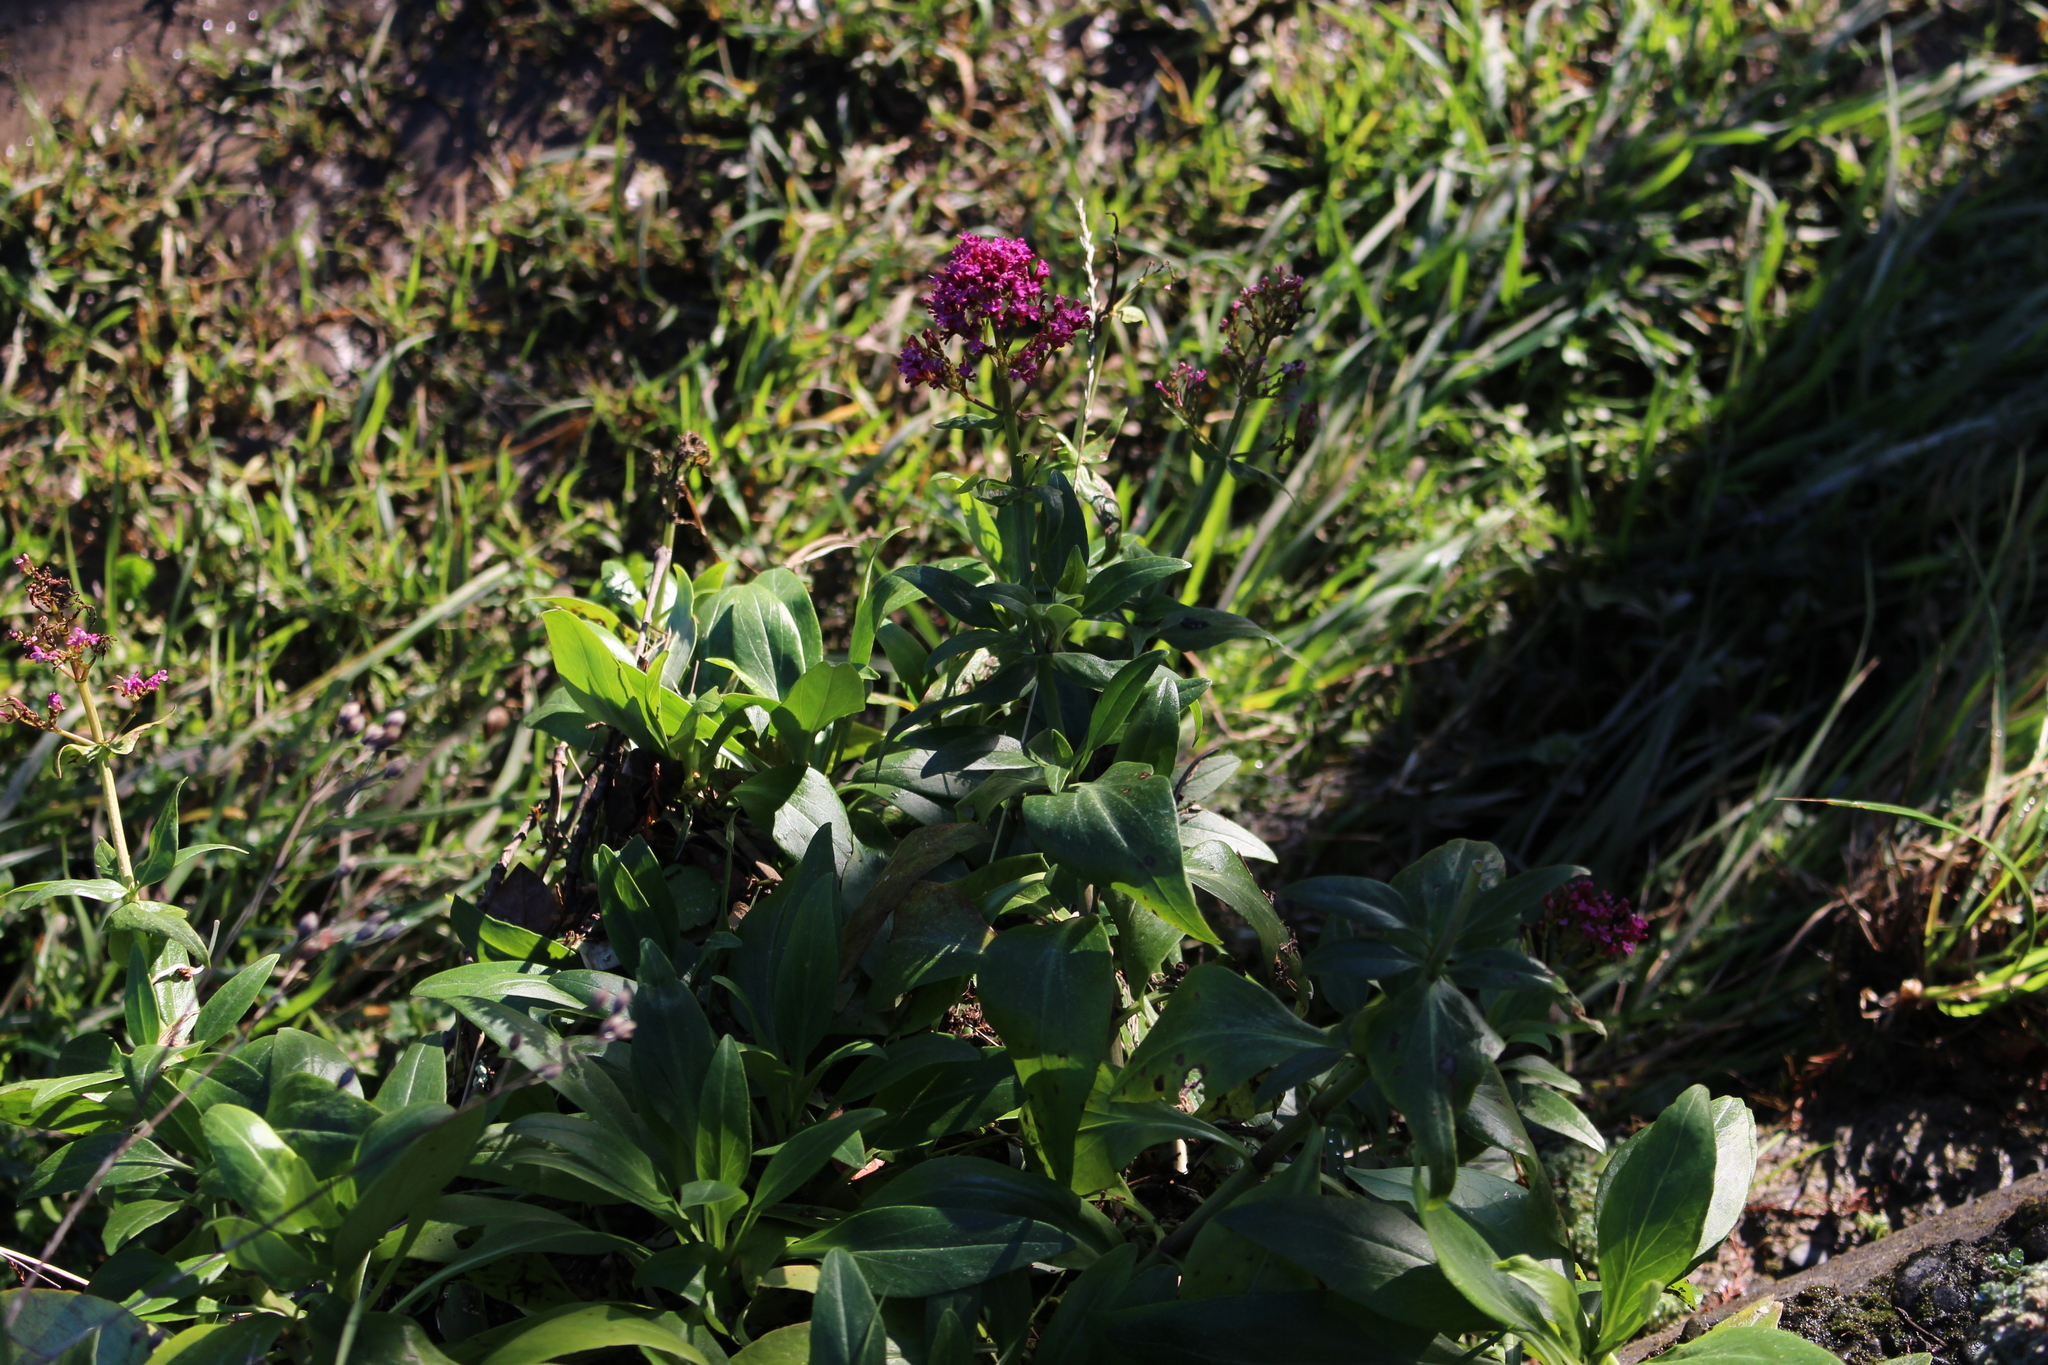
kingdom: Plantae
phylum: Tracheophyta
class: Magnoliopsida
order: Dipsacales
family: Caprifoliaceae
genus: Centranthus
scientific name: Centranthus ruber
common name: Red valerian
